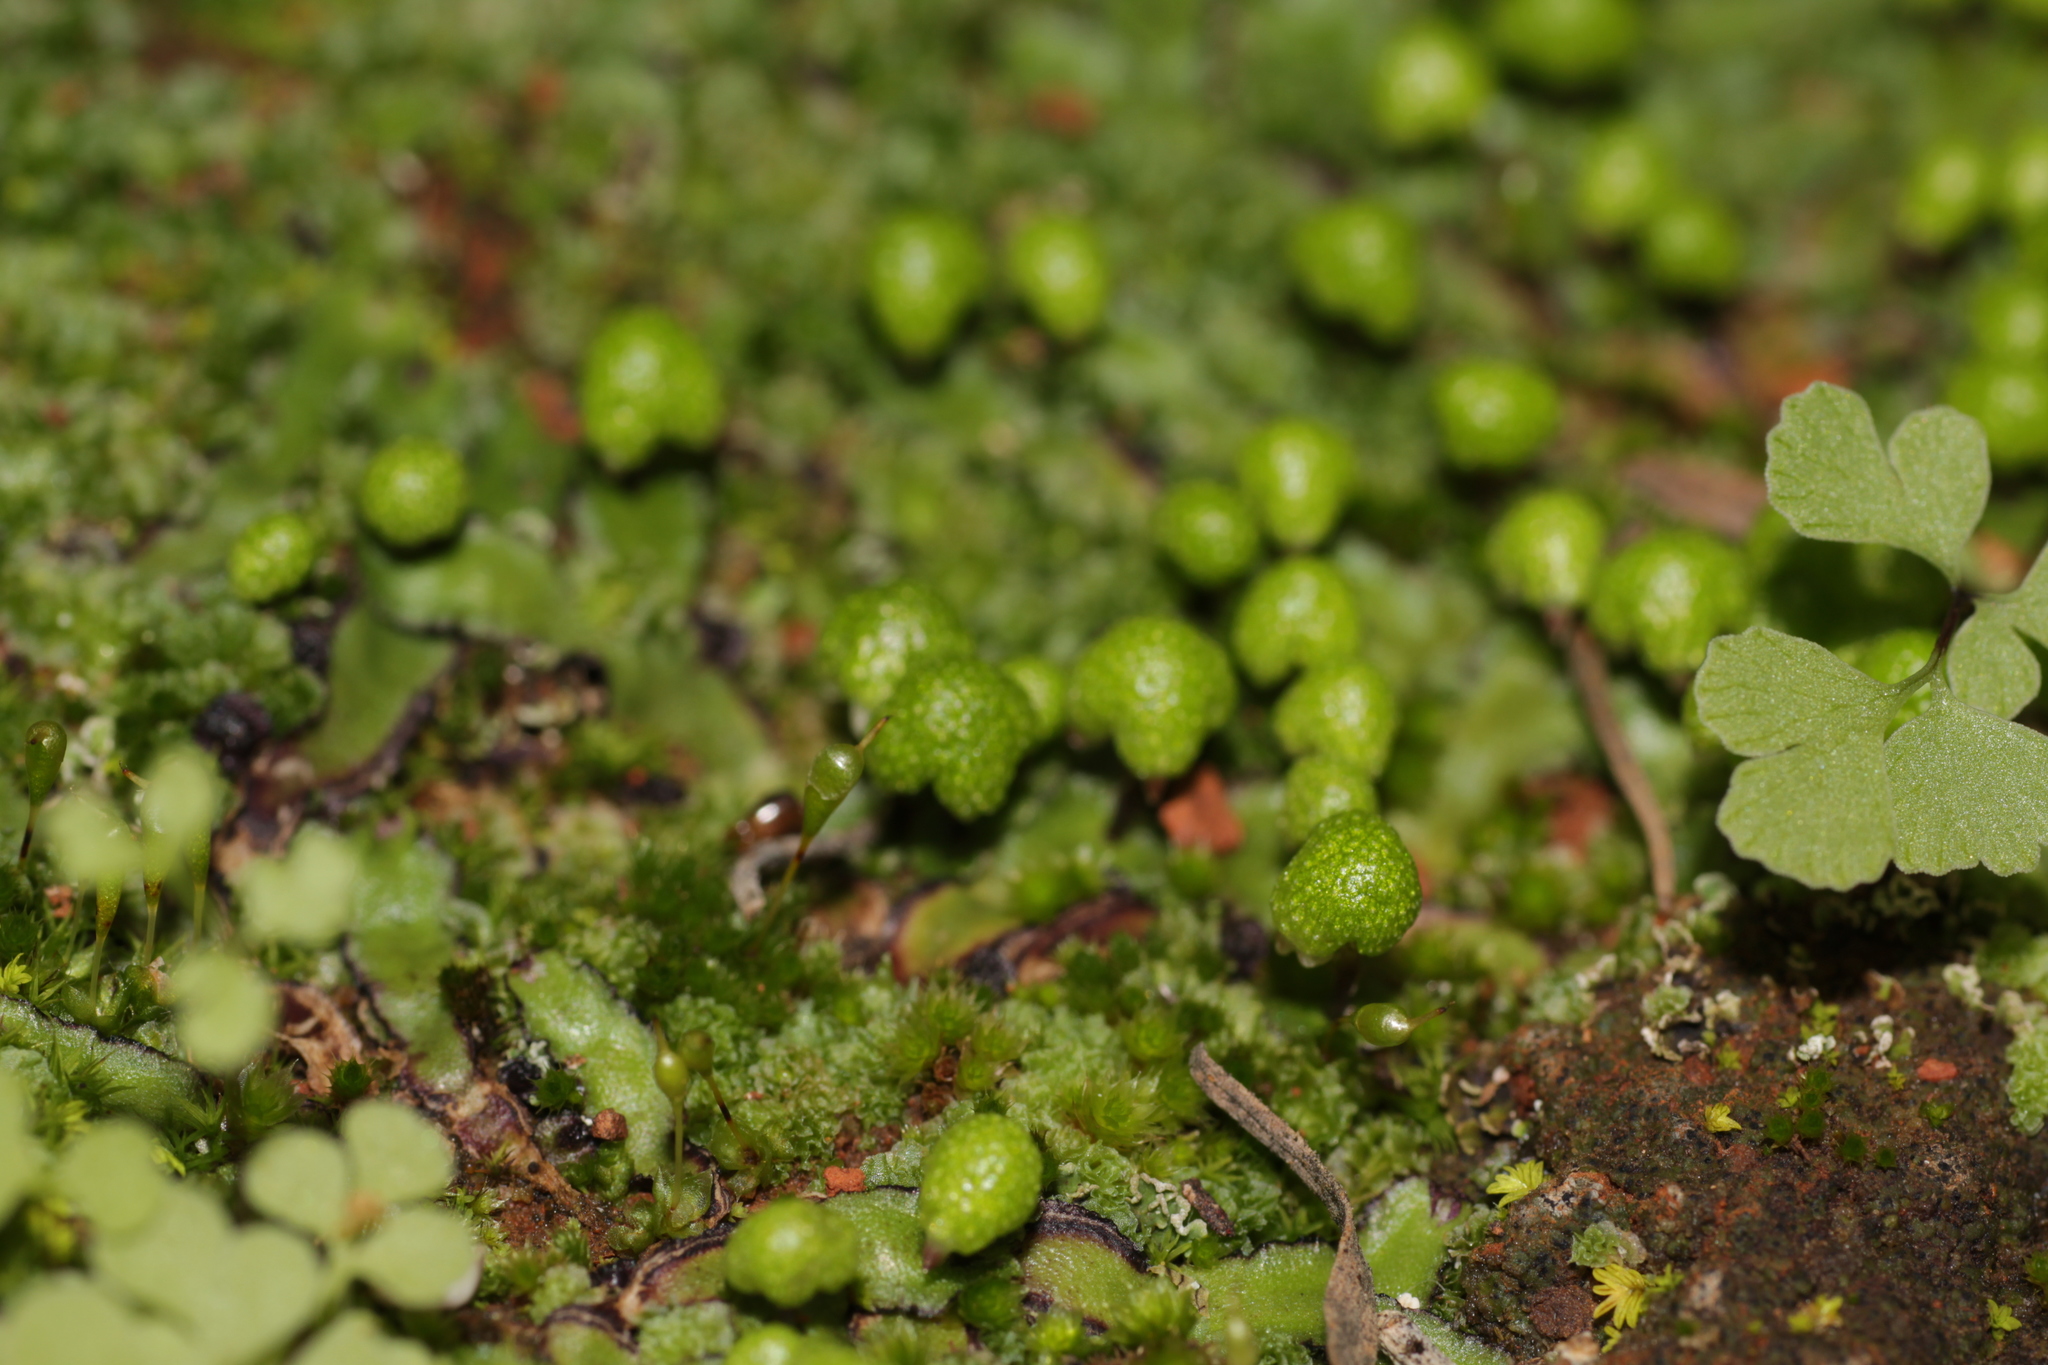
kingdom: Plantae
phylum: Marchantiophyta
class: Marchantiopsida
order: Marchantiales
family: Aytoniaceae
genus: Asterella
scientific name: Asterella drummondii
